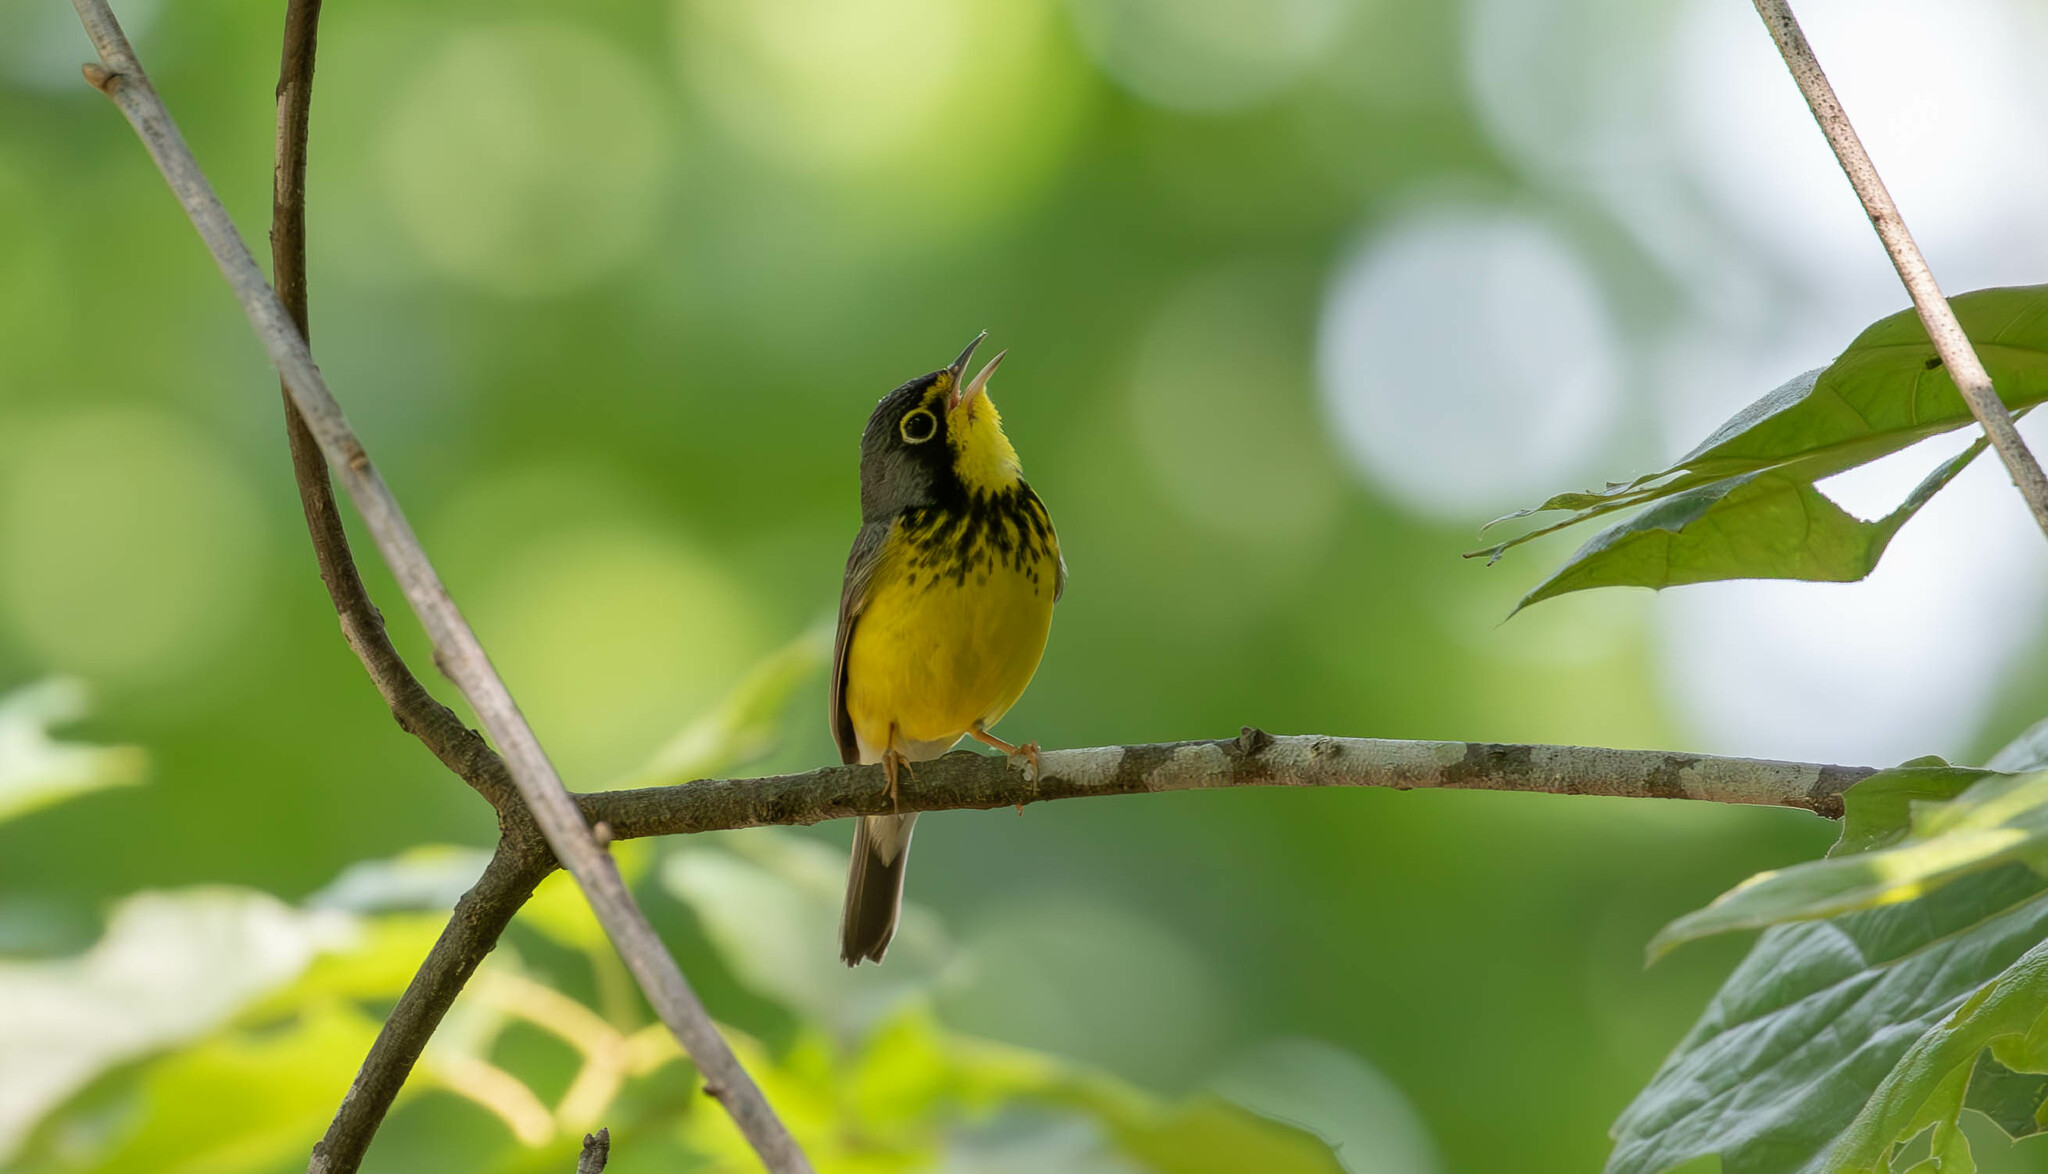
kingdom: Animalia
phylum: Chordata
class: Aves
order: Passeriformes
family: Parulidae
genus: Cardellina
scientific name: Cardellina canadensis
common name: Canada warbler
